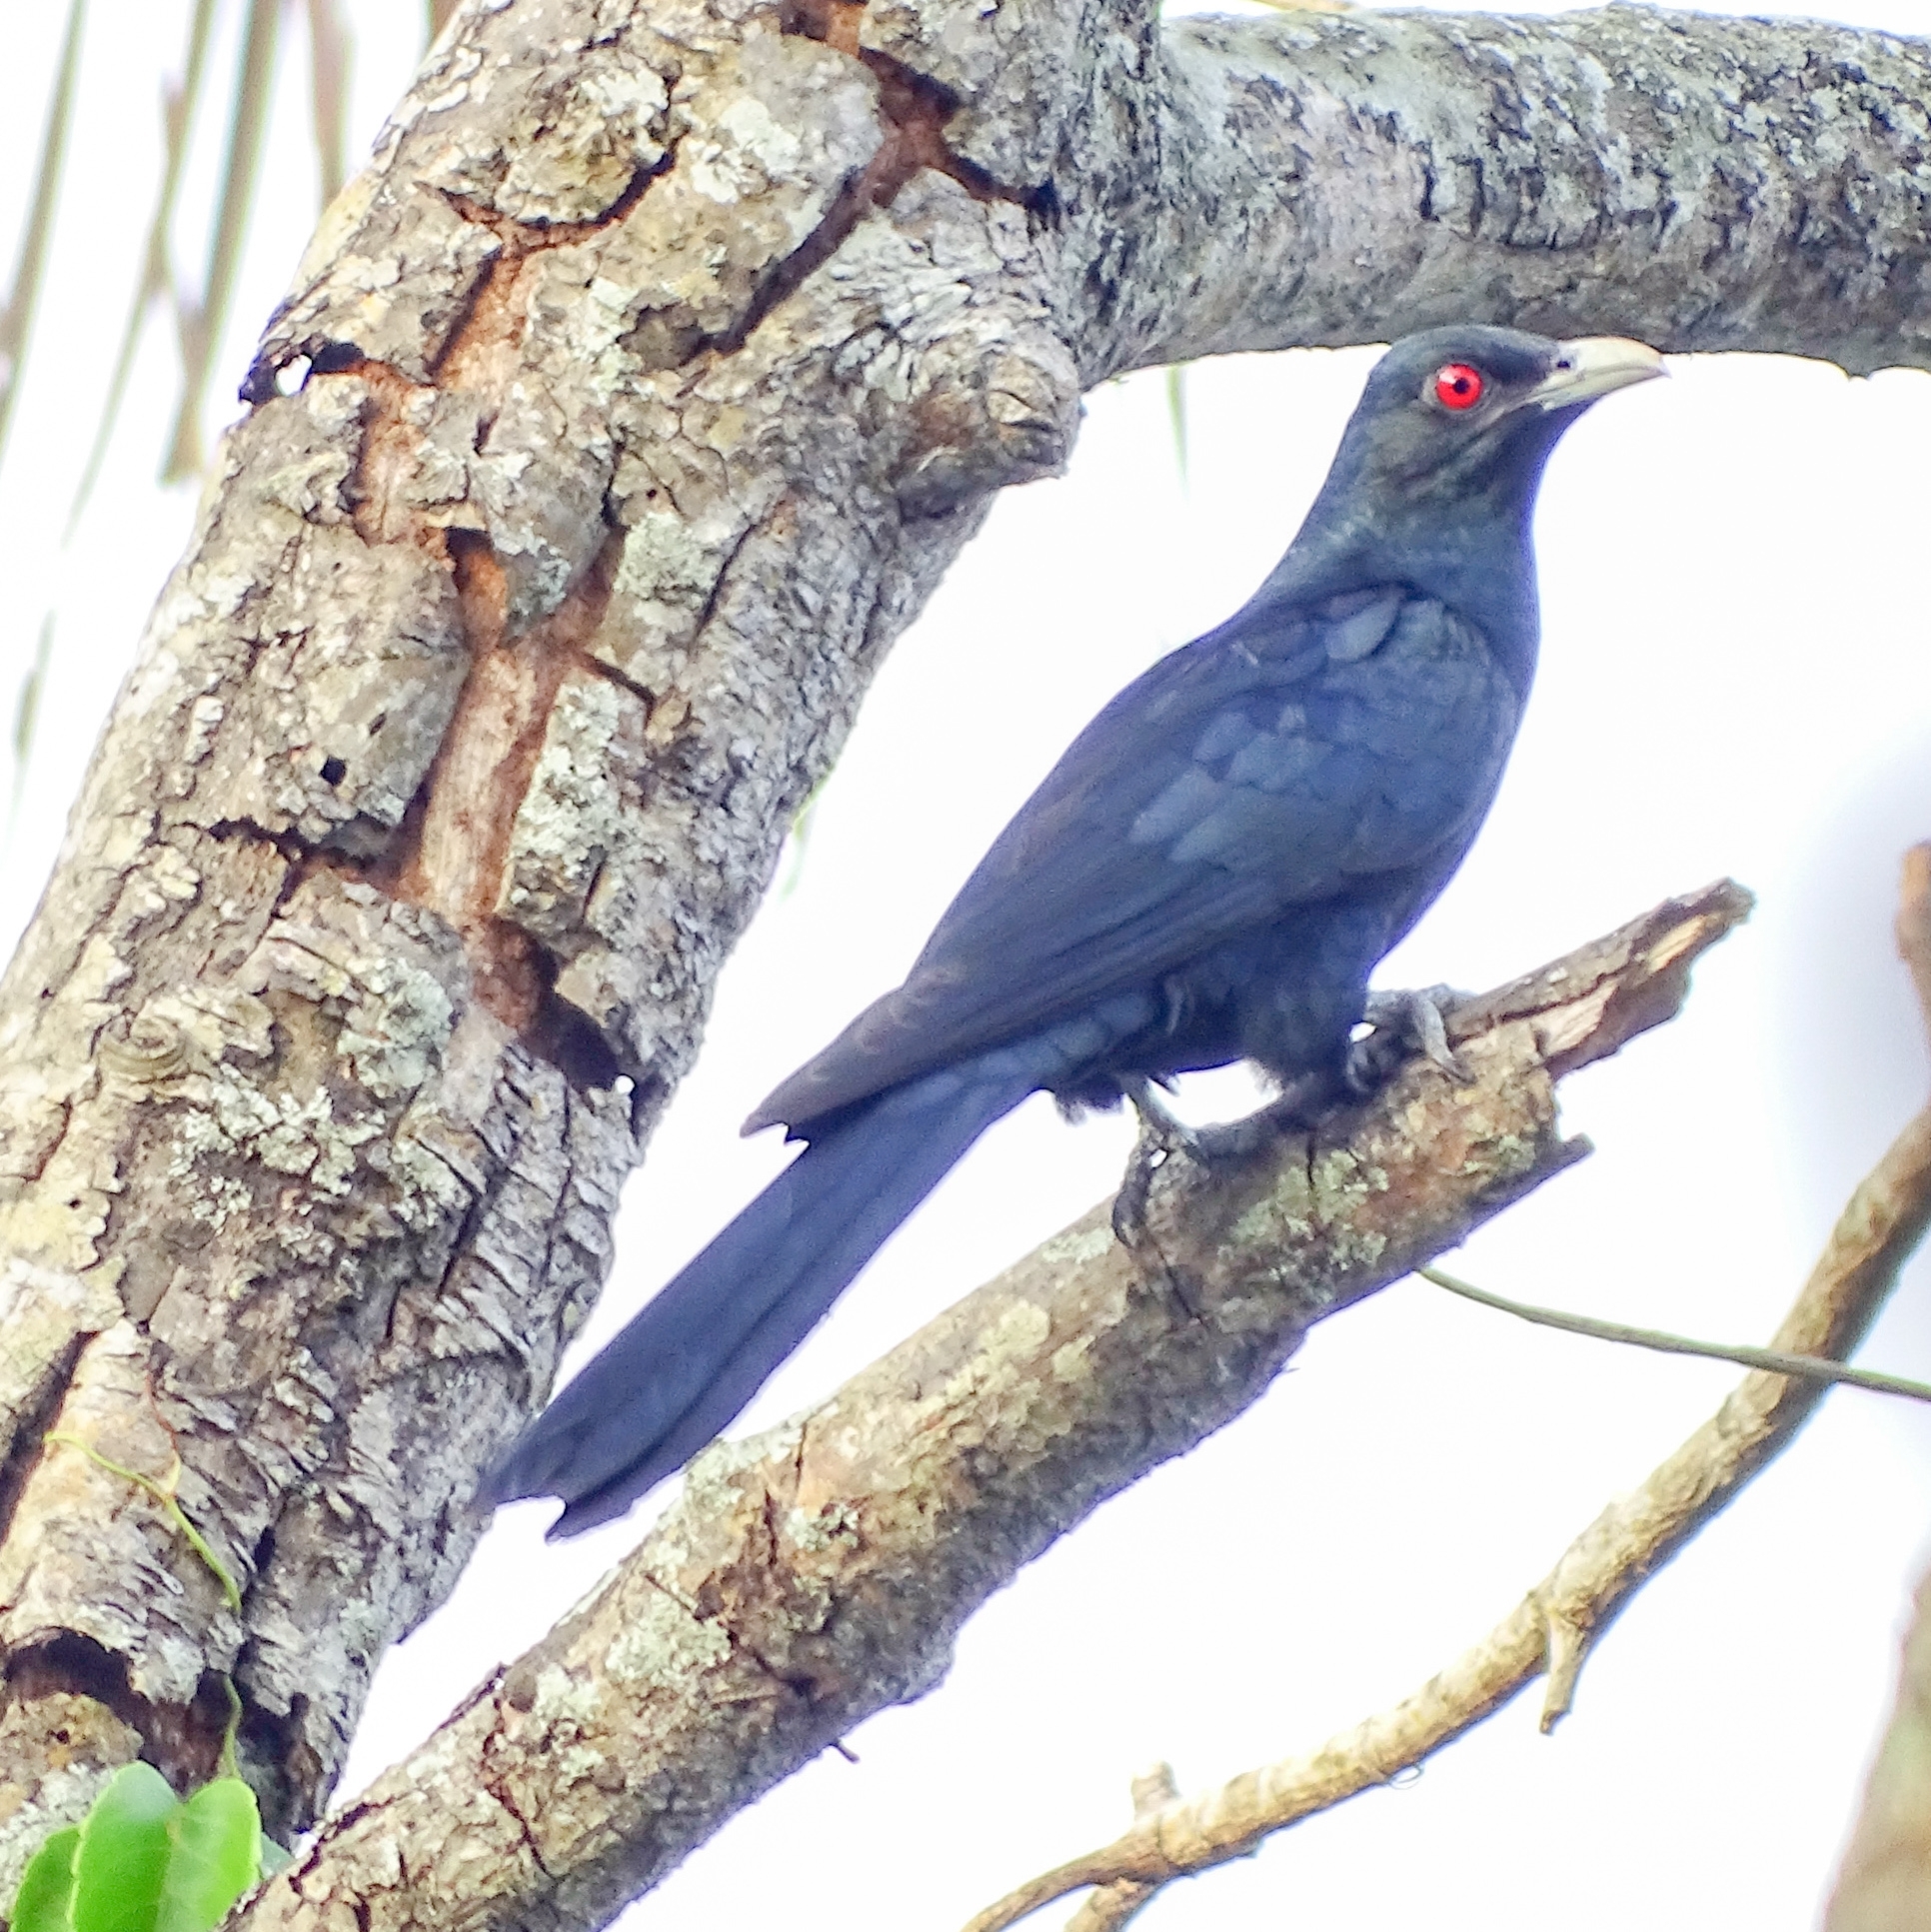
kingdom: Animalia
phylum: Chordata
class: Aves
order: Cuculiformes
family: Cuculidae
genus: Eudynamys
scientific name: Eudynamys scolopaceus
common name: Asian koel
